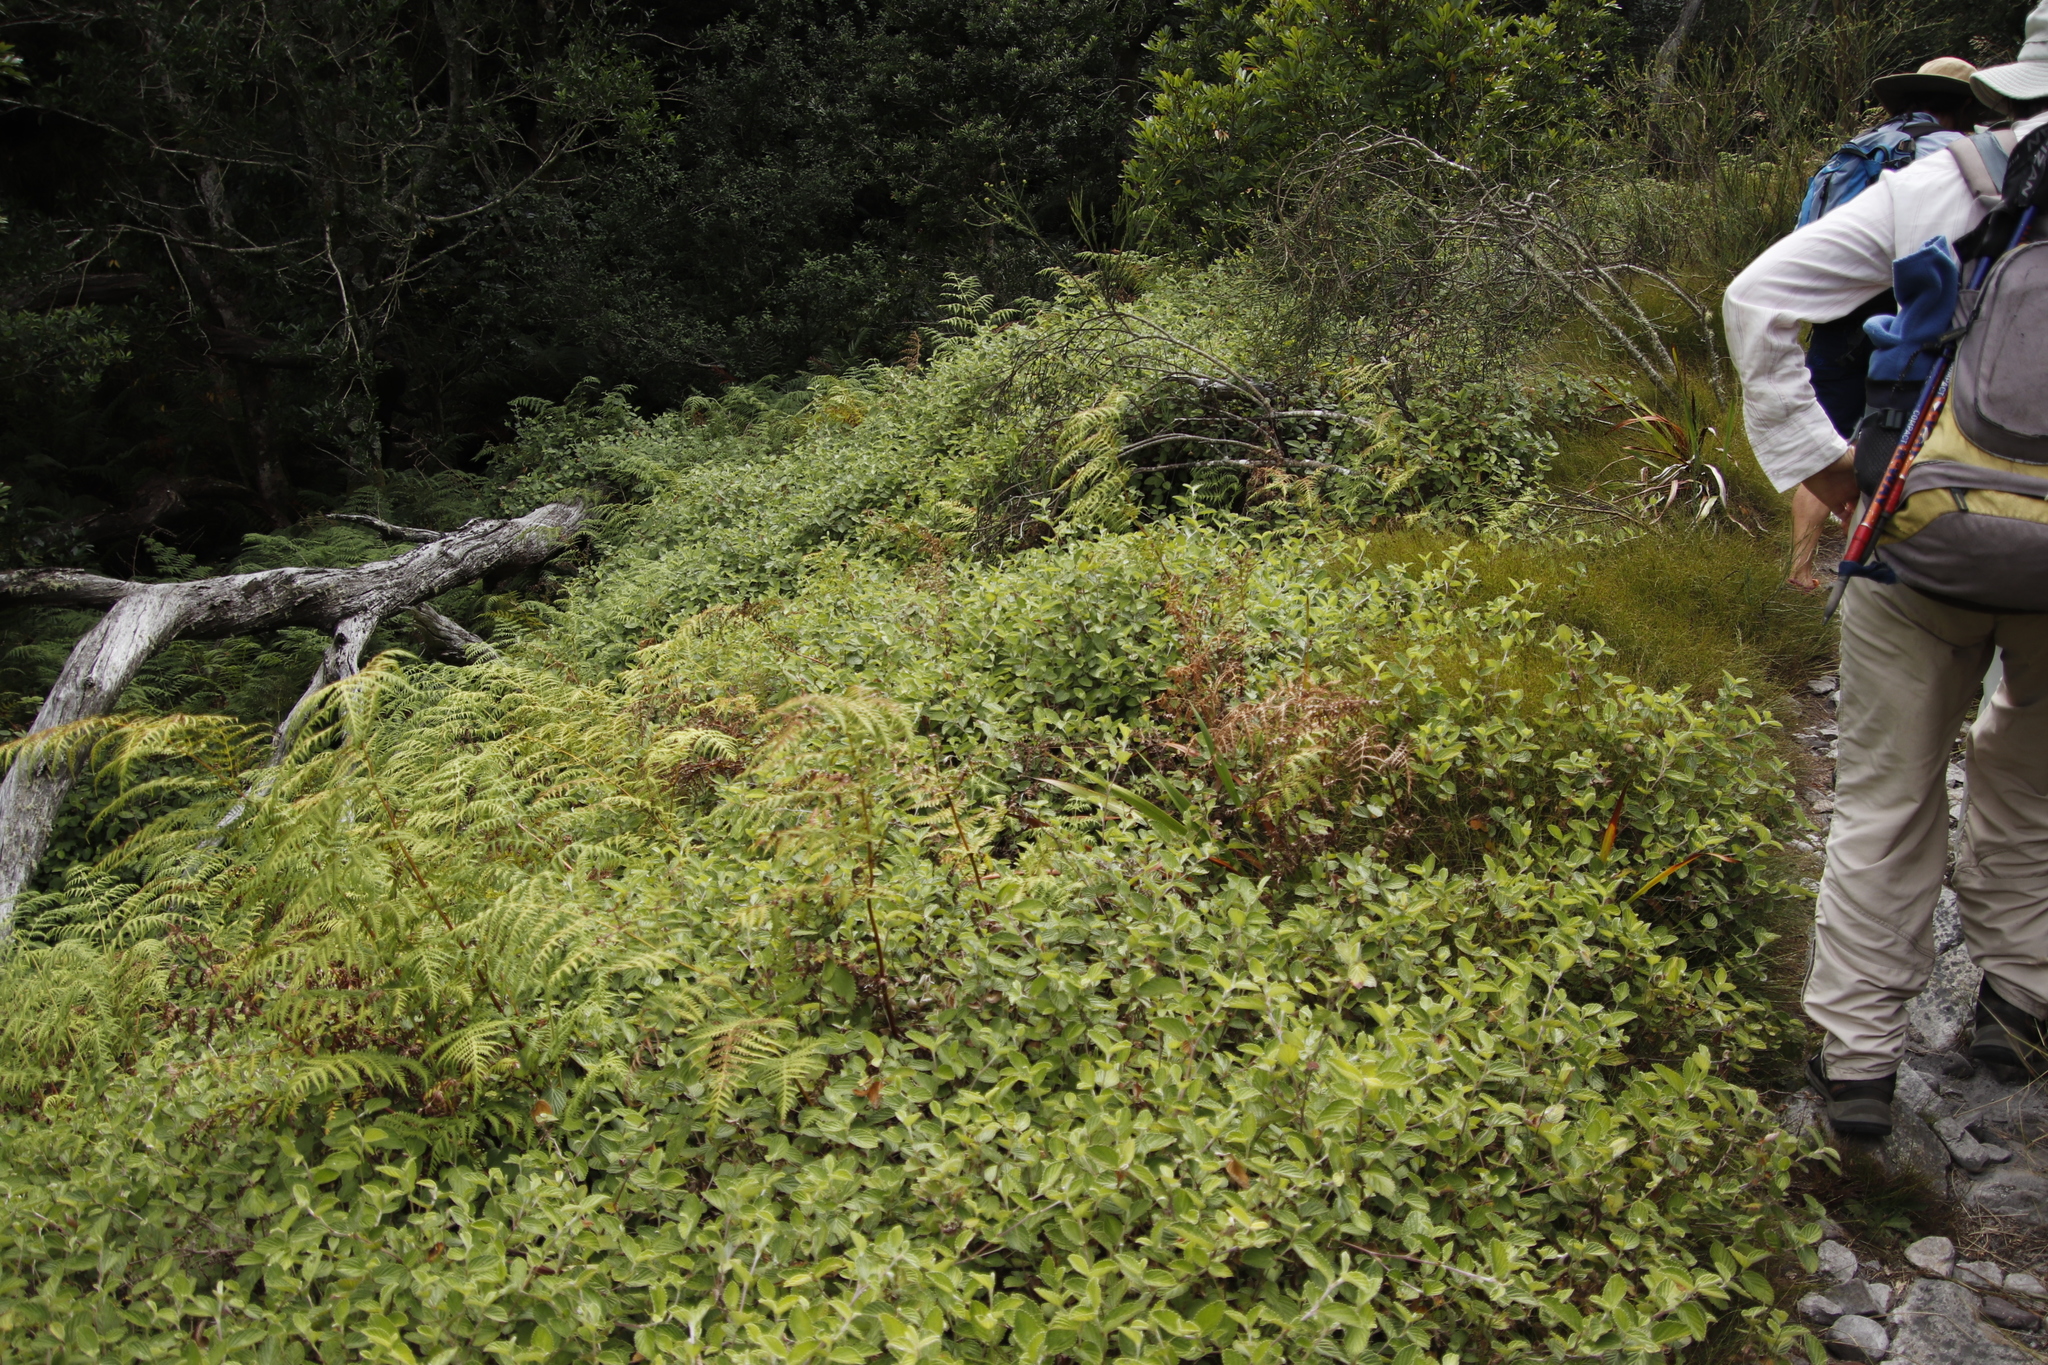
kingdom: Plantae
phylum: Tracheophyta
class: Polypodiopsida
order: Polypodiales
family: Dennstaedtiaceae
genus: Pteridium
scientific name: Pteridium aquilinum
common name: Bracken
